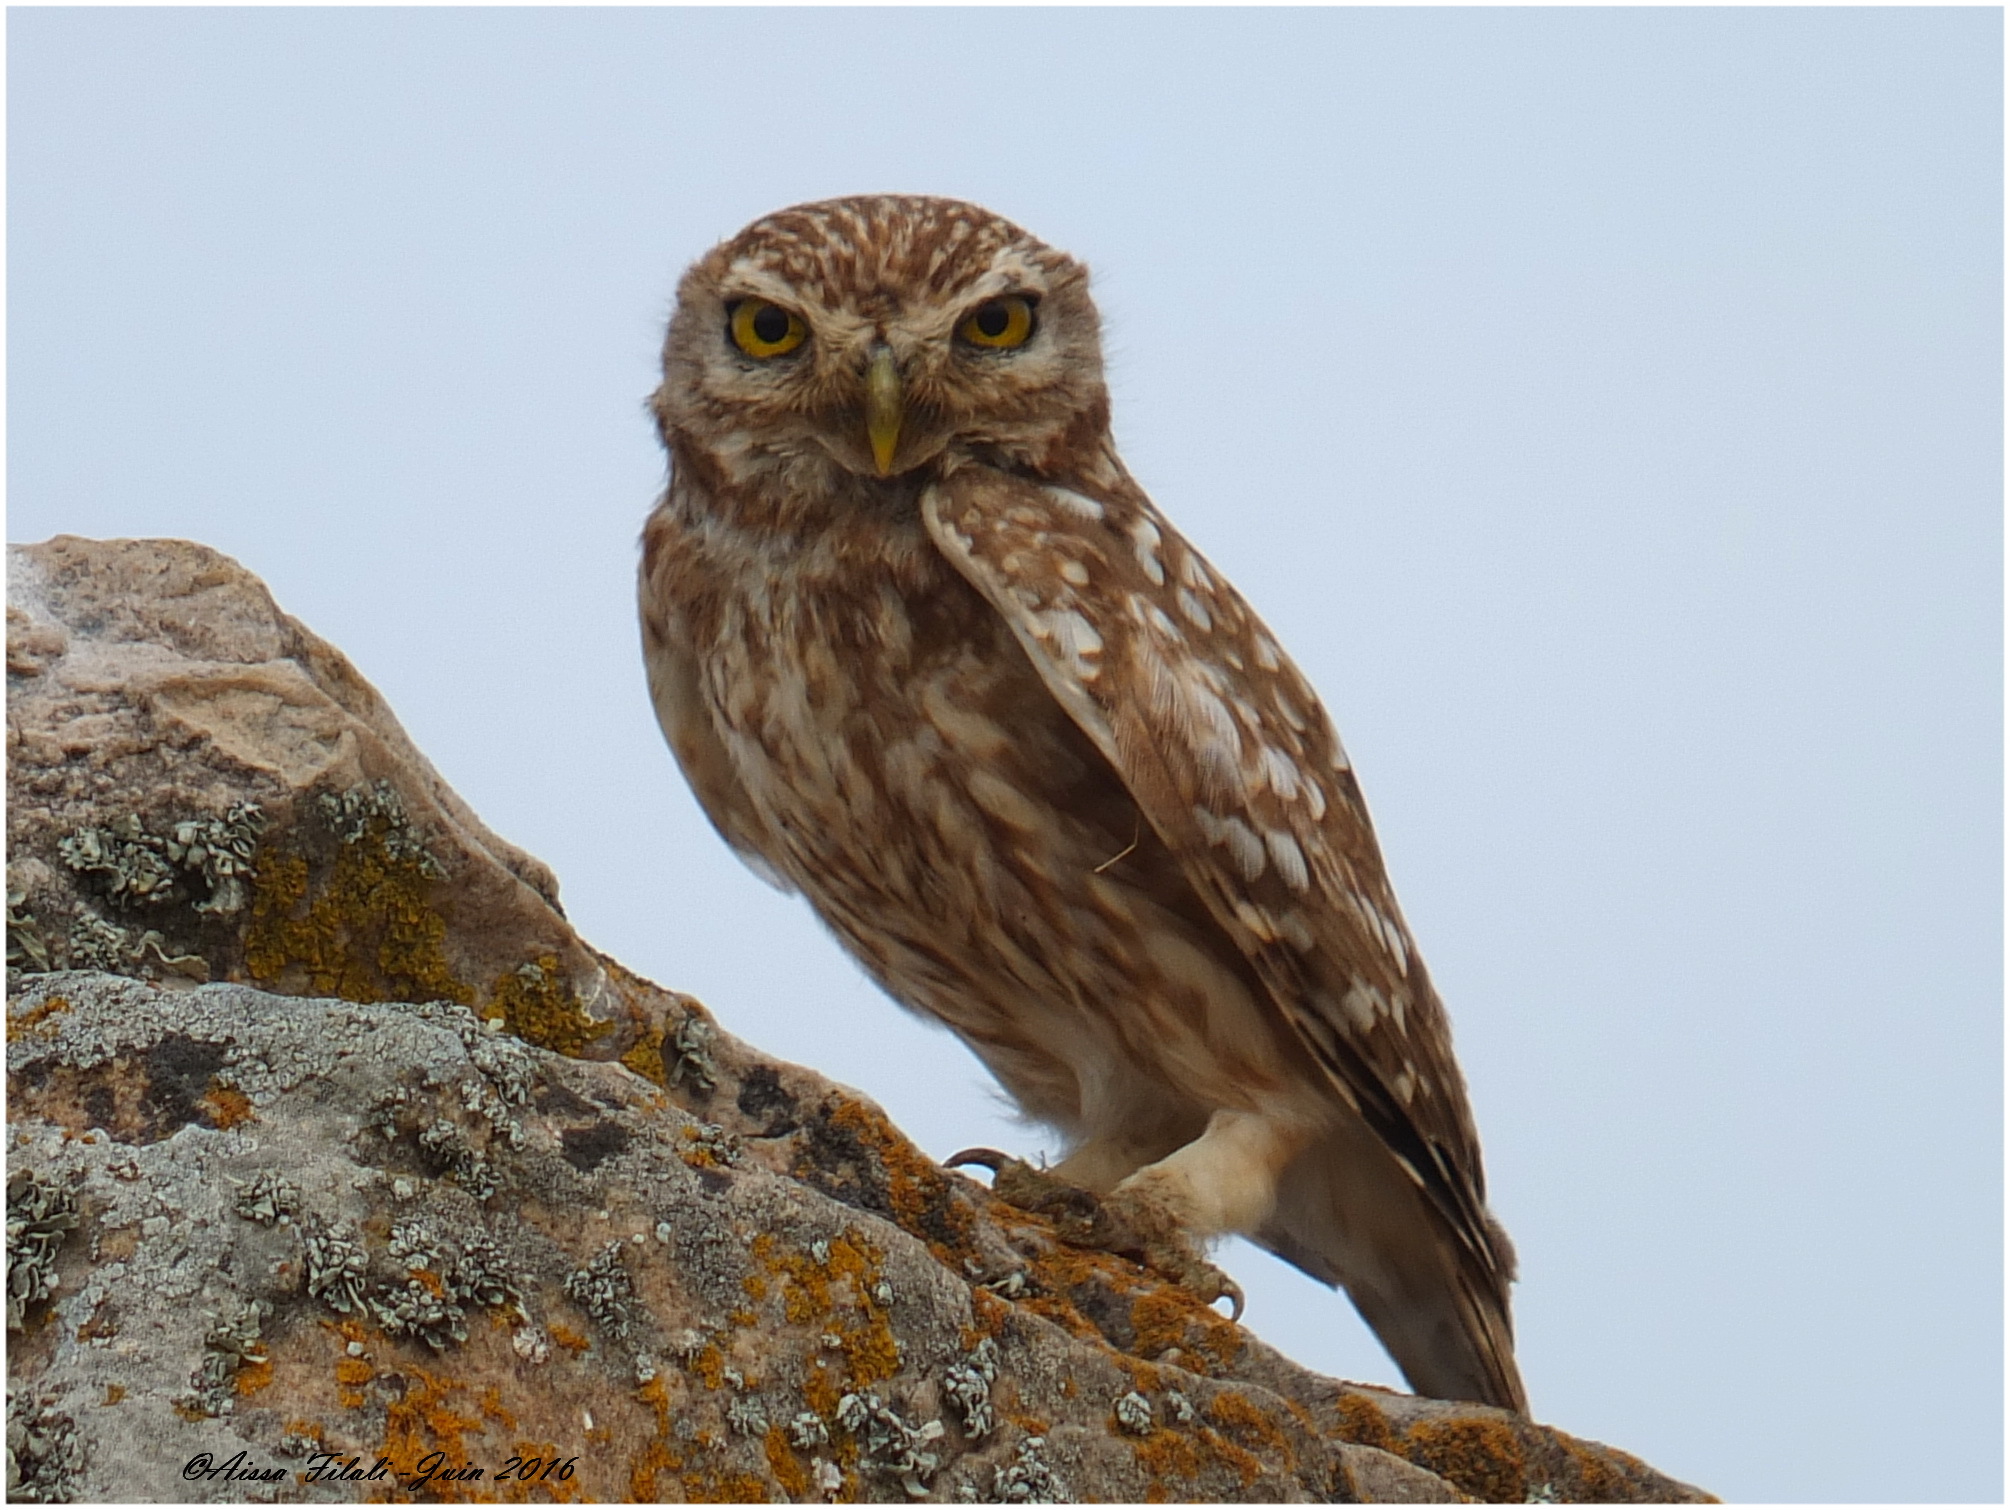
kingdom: Animalia
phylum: Chordata
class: Aves
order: Strigiformes
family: Strigidae
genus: Athene
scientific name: Athene noctua
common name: Little owl
